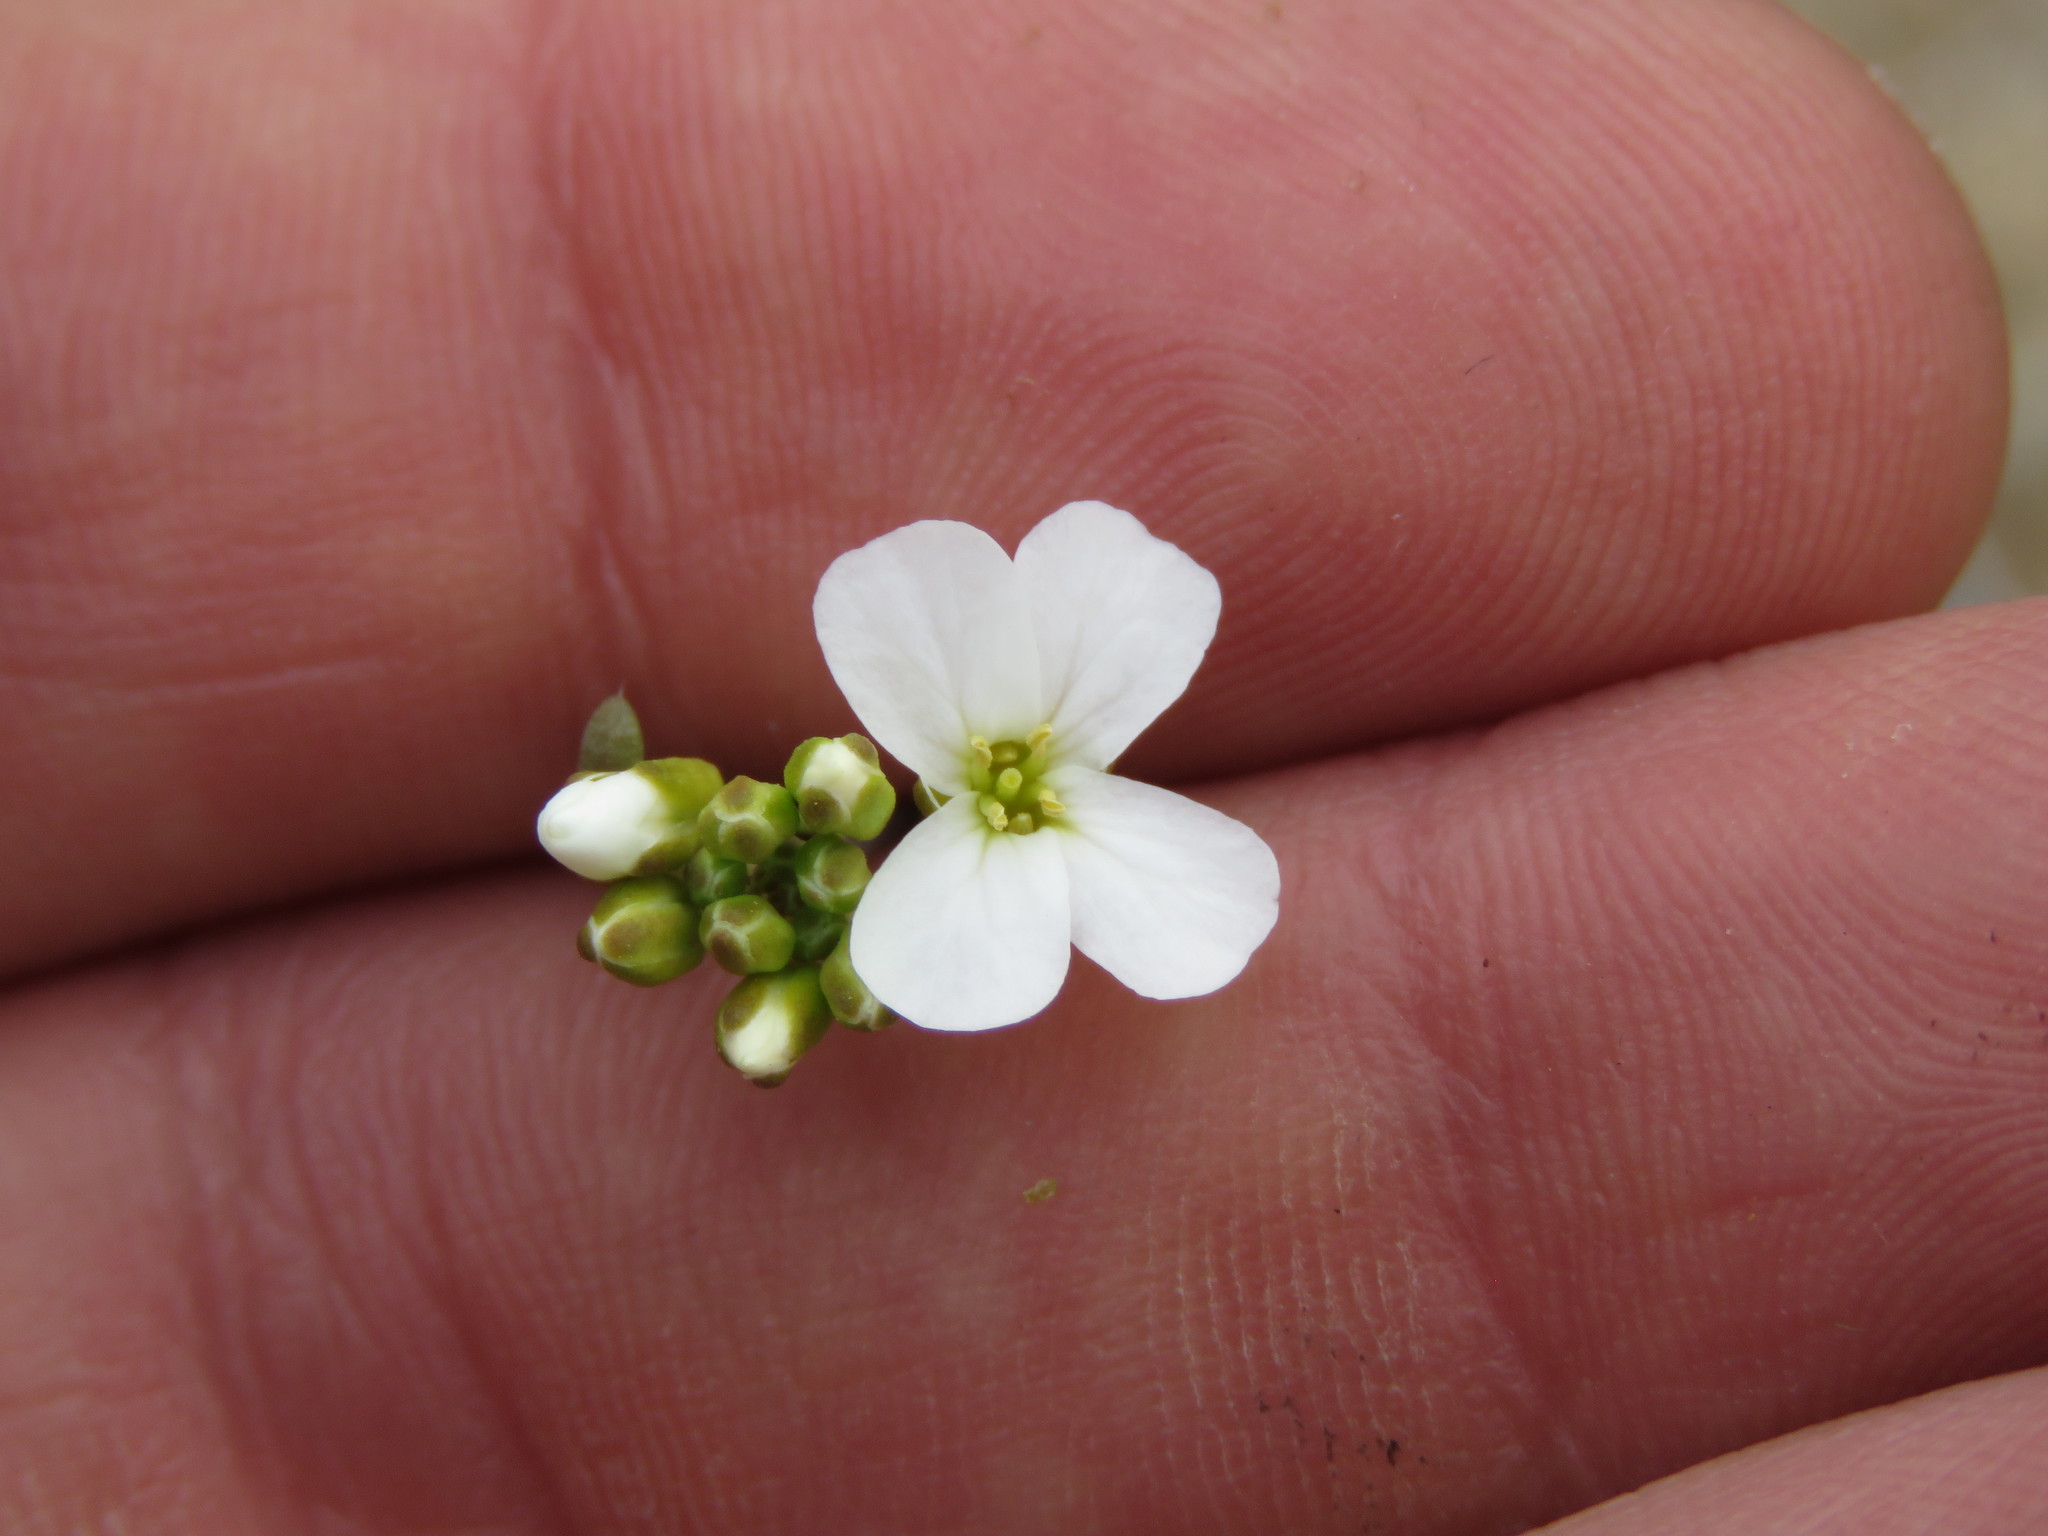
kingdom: Plantae
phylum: Tracheophyta
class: Magnoliopsida
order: Brassicales
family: Brassicaceae
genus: Arabidopsis
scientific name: Arabidopsis lyrata
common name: Lyrate rockcress
